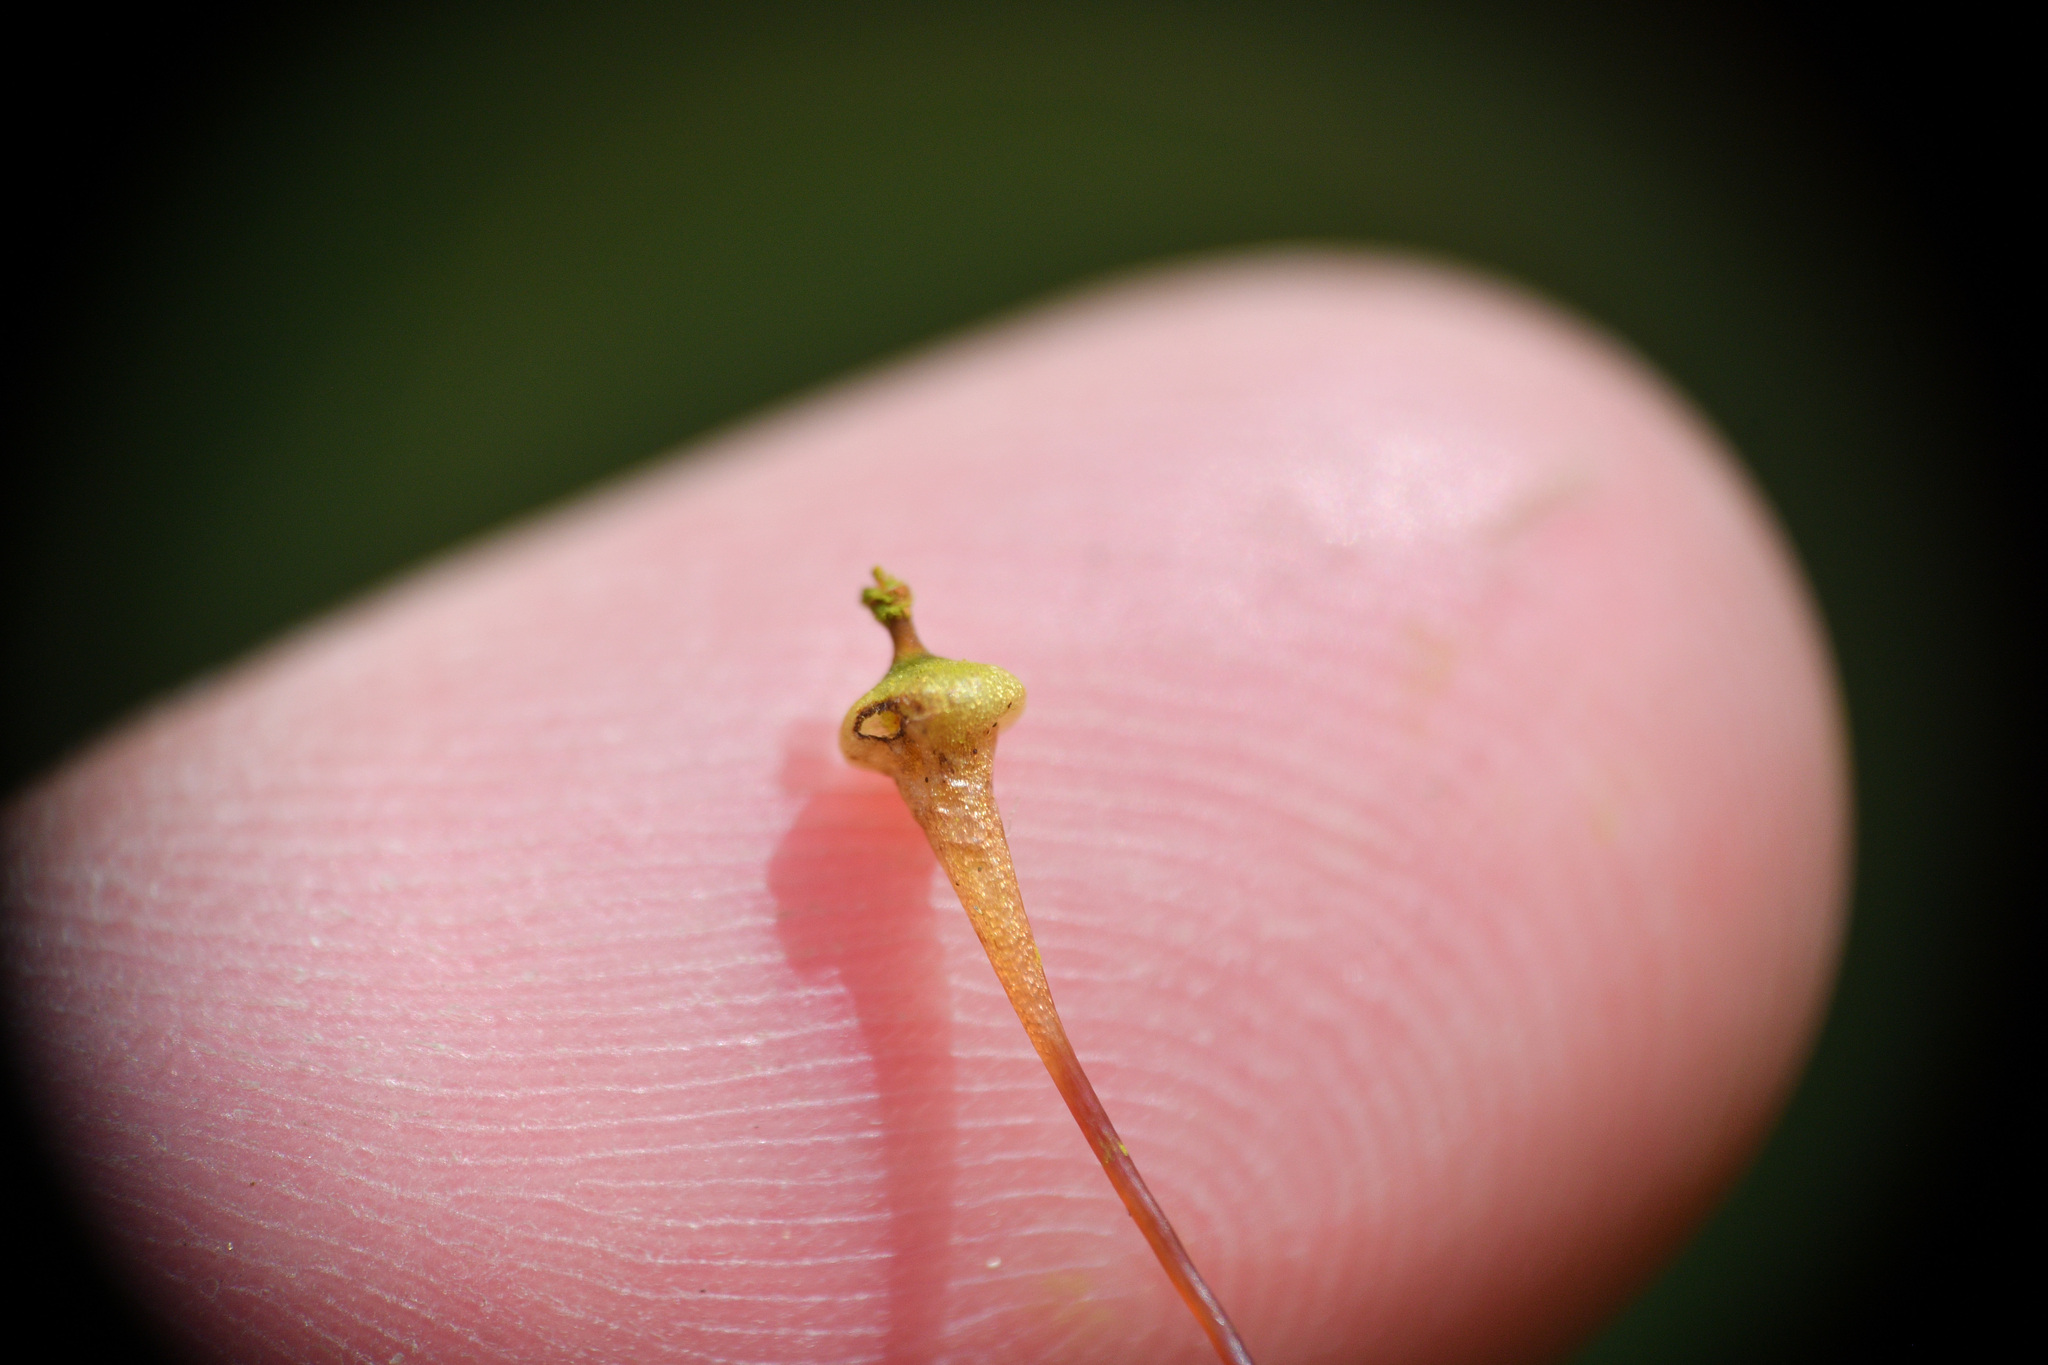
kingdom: Plantae
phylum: Bryophyta
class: Bryopsida
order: Splachnales
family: Splachnaceae
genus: Splachnum
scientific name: Splachnum ampullaceum
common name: Cruet dung moss
